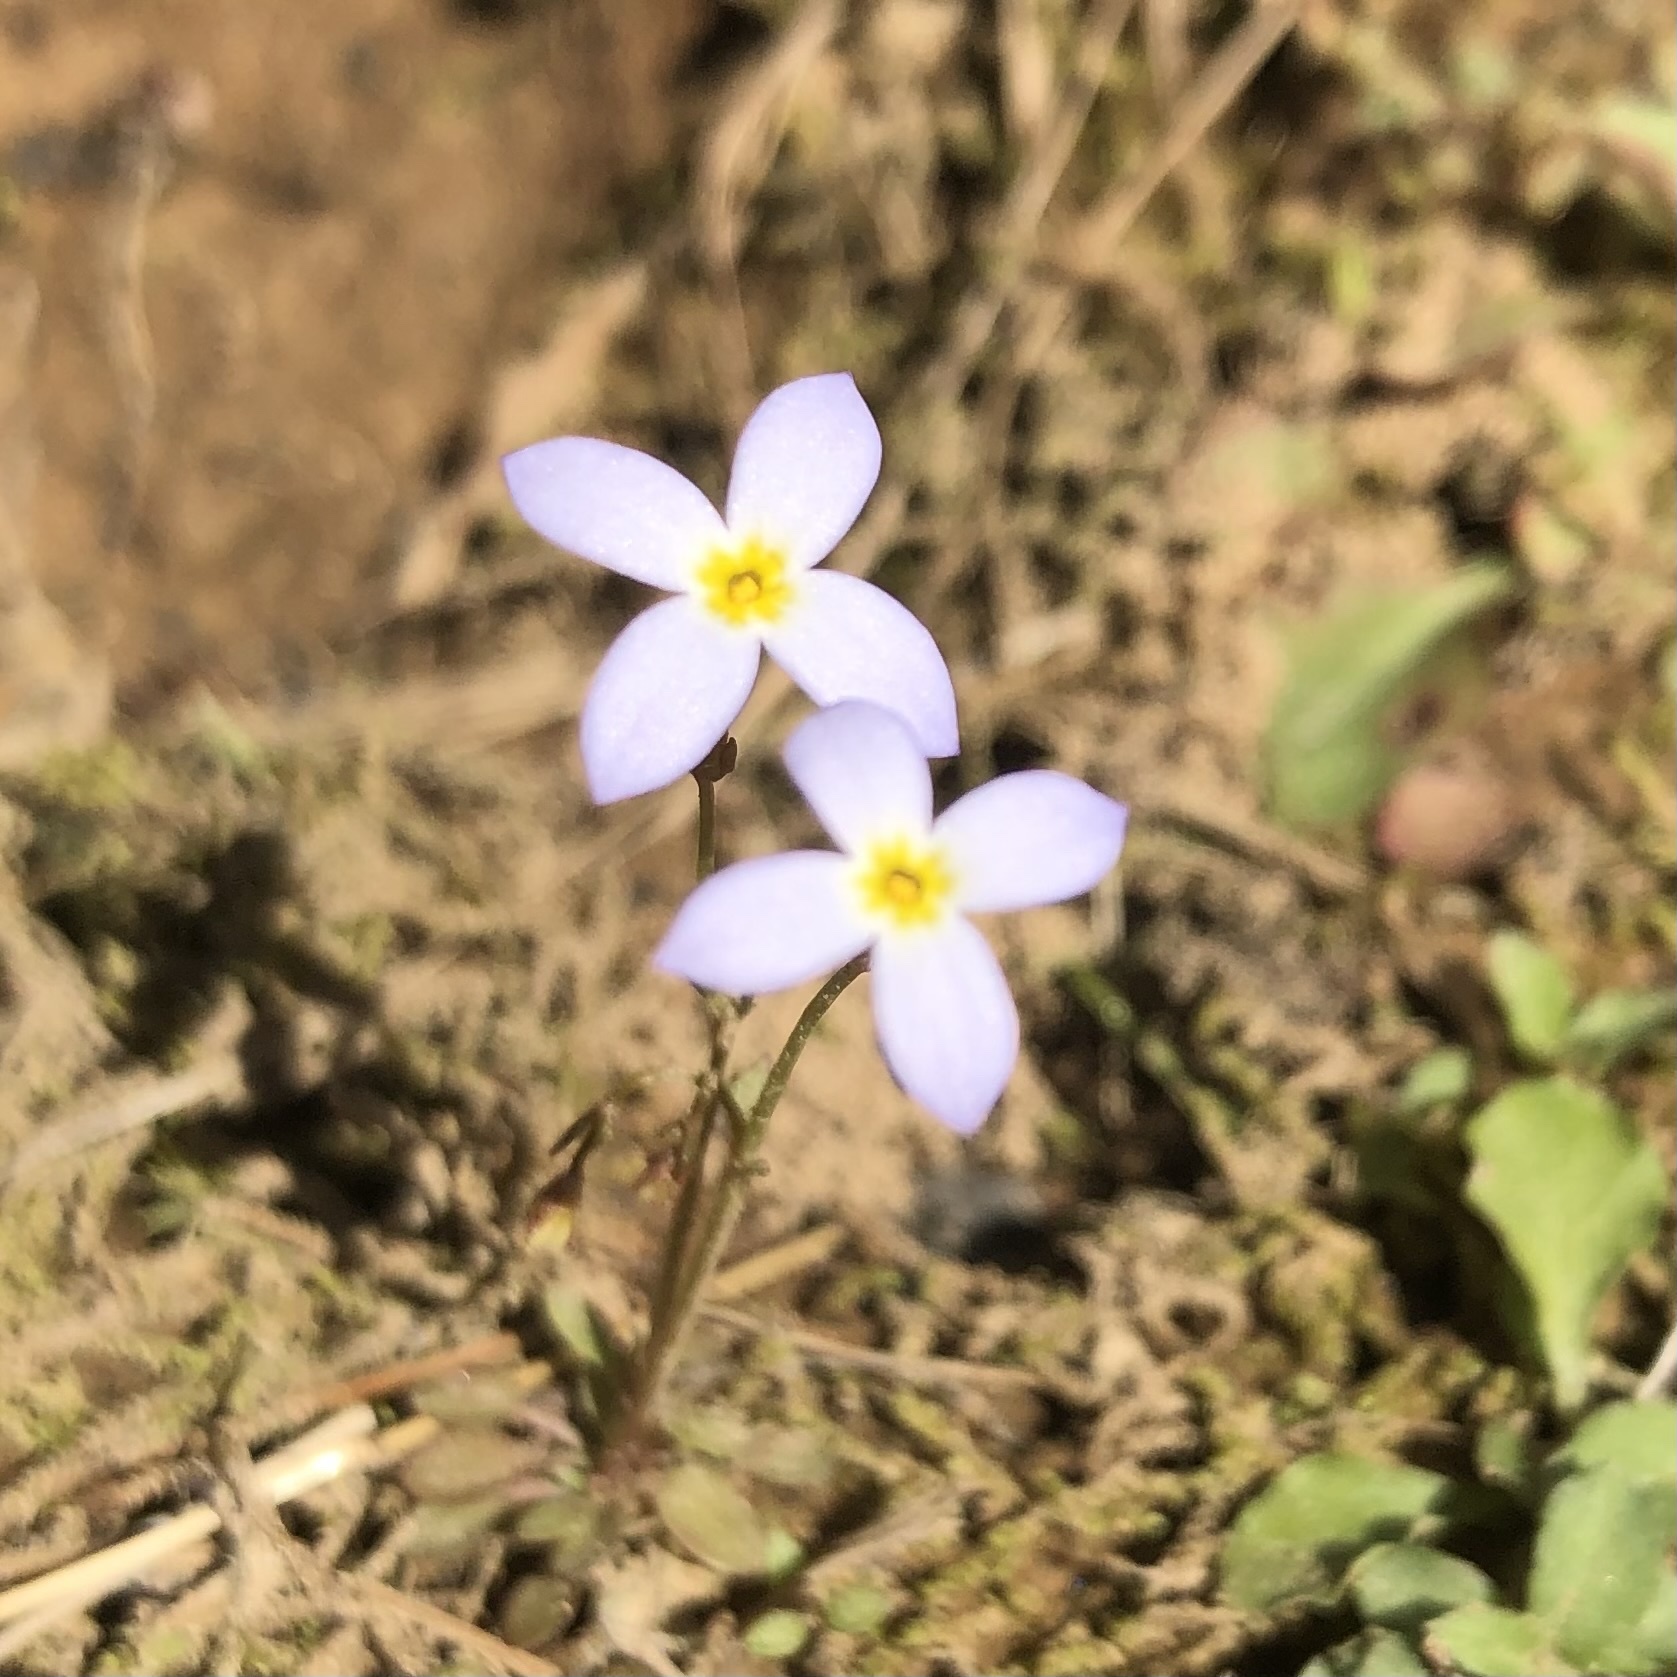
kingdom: Plantae
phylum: Tracheophyta
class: Magnoliopsida
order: Gentianales
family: Rubiaceae
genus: Houstonia
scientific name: Houstonia caerulea
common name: Bluets
